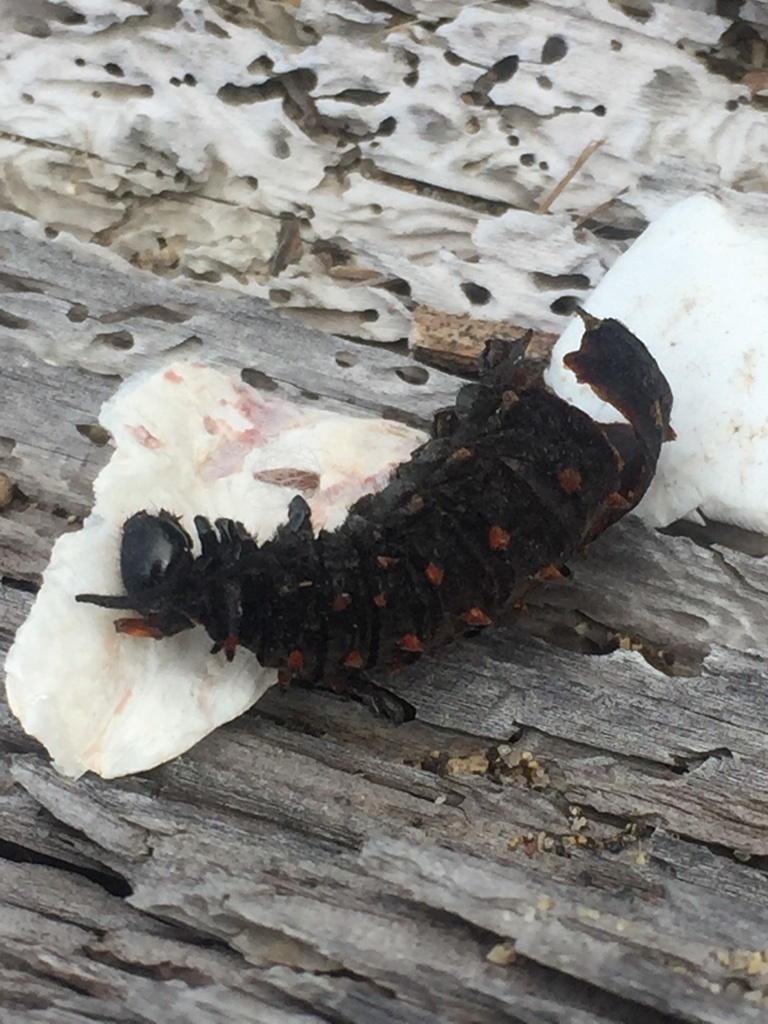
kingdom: Animalia
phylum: Arthropoda
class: Insecta
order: Lepidoptera
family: Papilionidae
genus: Battus
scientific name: Battus philenor
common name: Pipevine swallowtail
